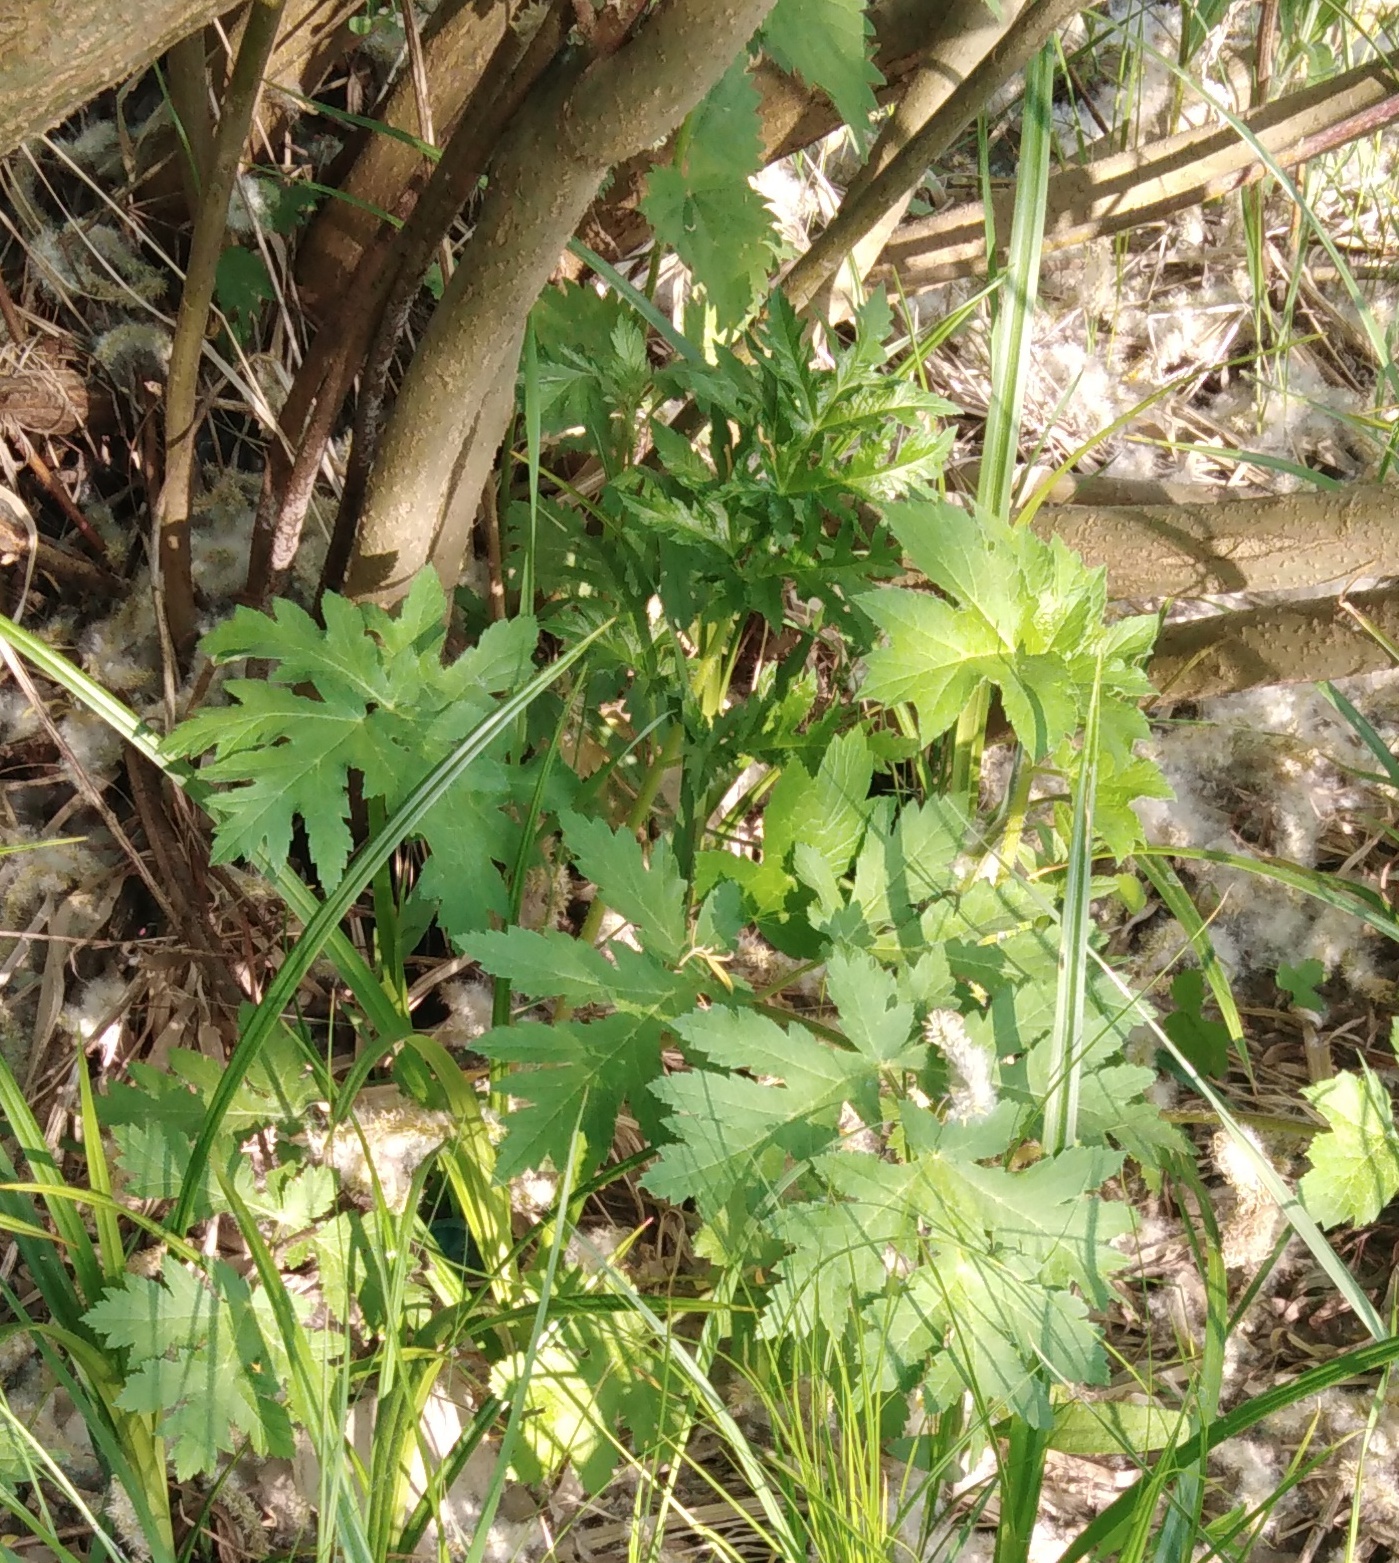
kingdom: Plantae
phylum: Tracheophyta
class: Magnoliopsida
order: Apiales
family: Apiaceae
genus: Heracleum
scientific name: Heracleum sphondylium
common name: Hogweed
